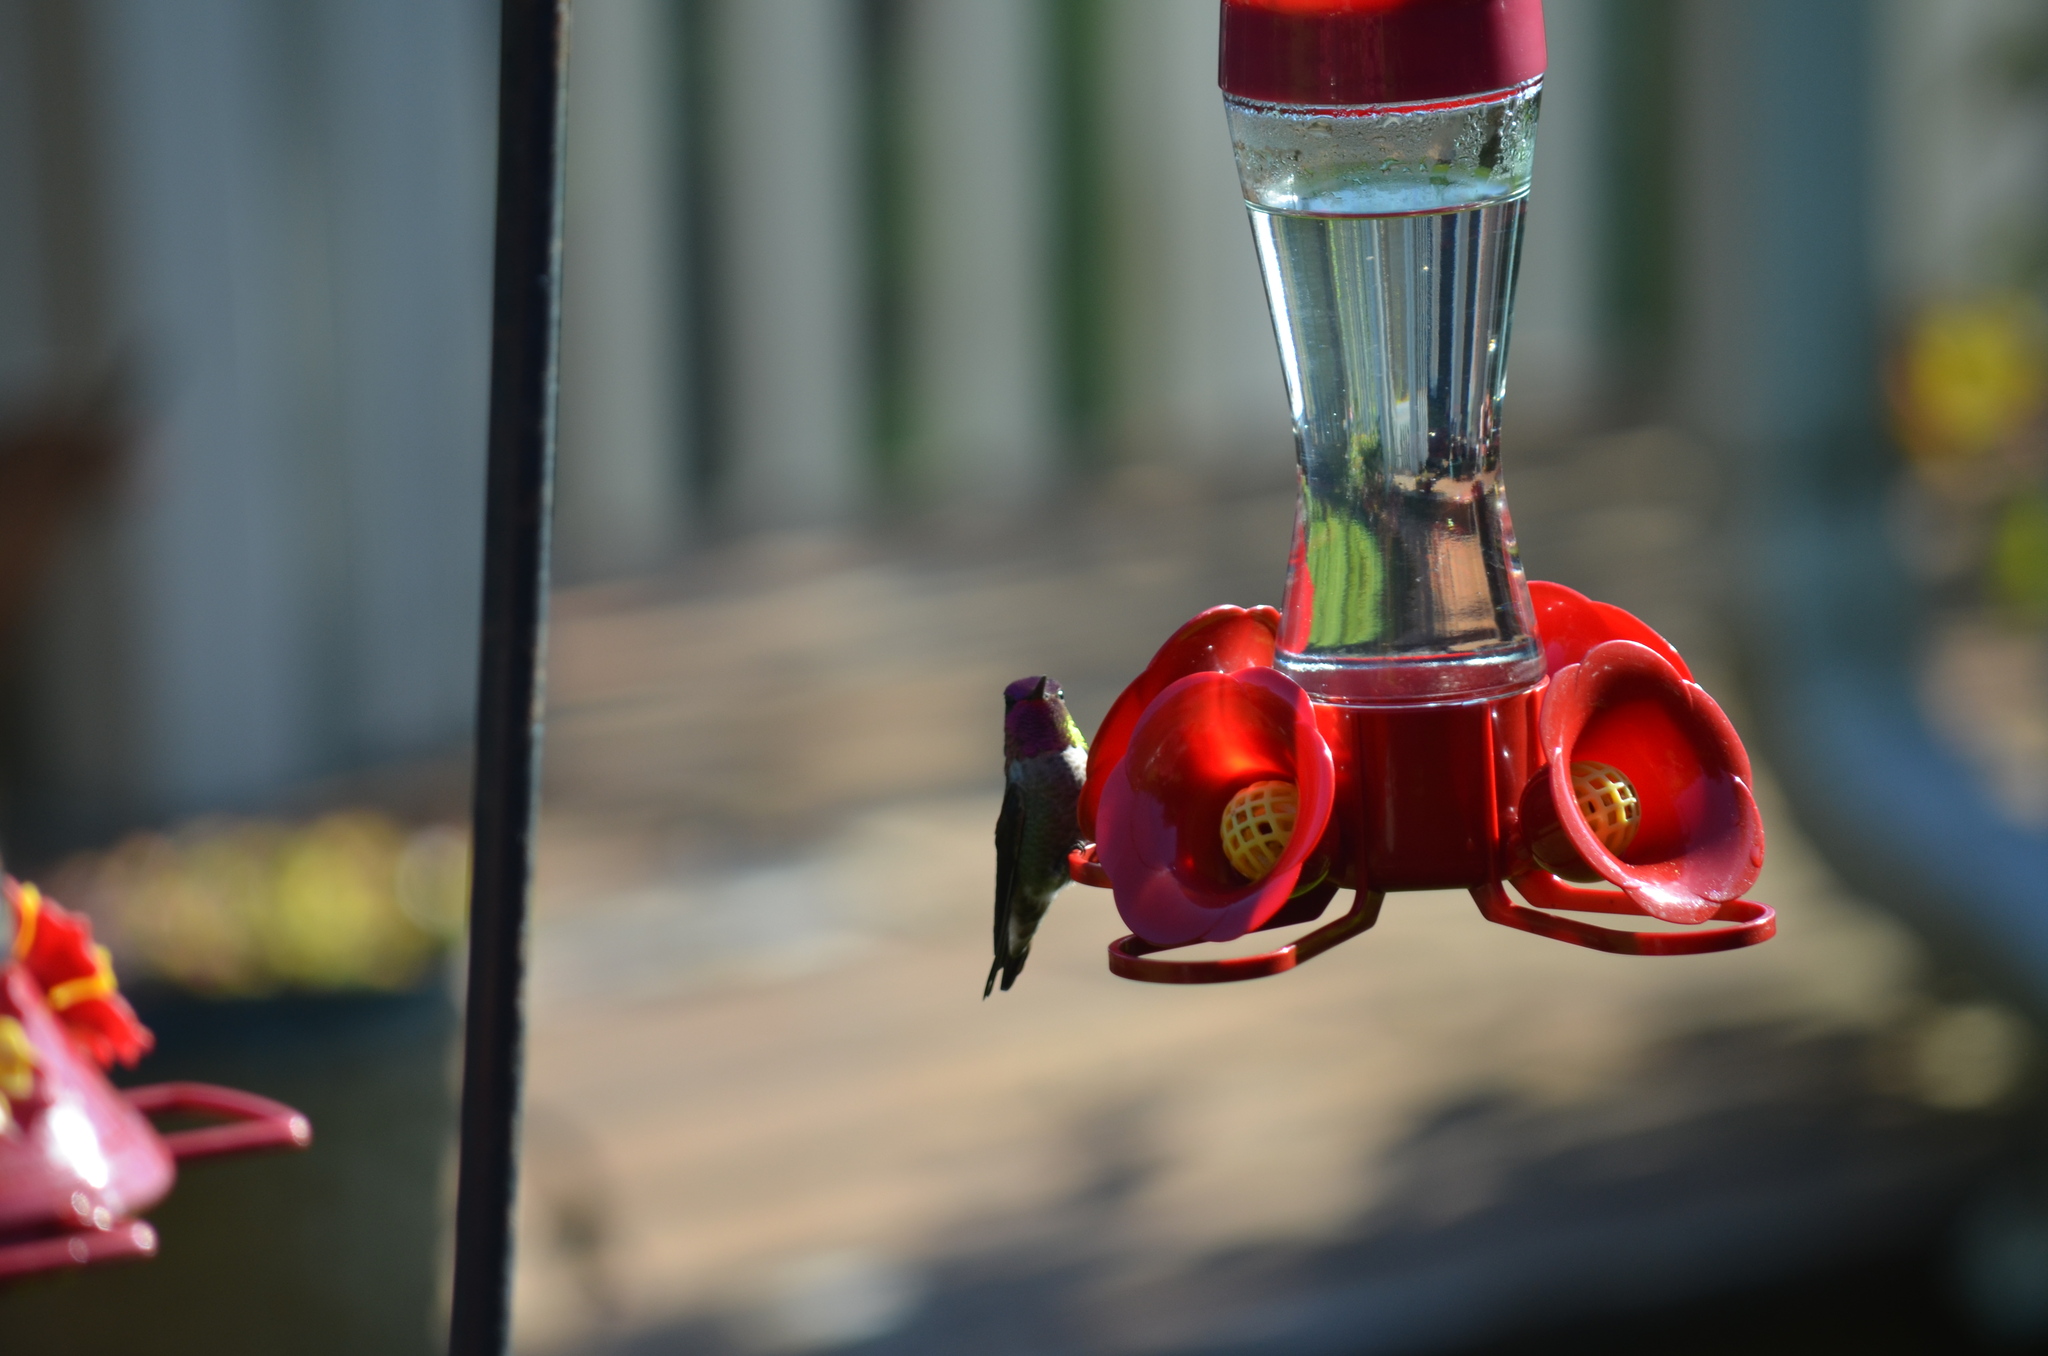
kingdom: Animalia
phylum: Chordata
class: Aves
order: Apodiformes
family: Trochilidae
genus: Calypte
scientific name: Calypte anna
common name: Anna's hummingbird
